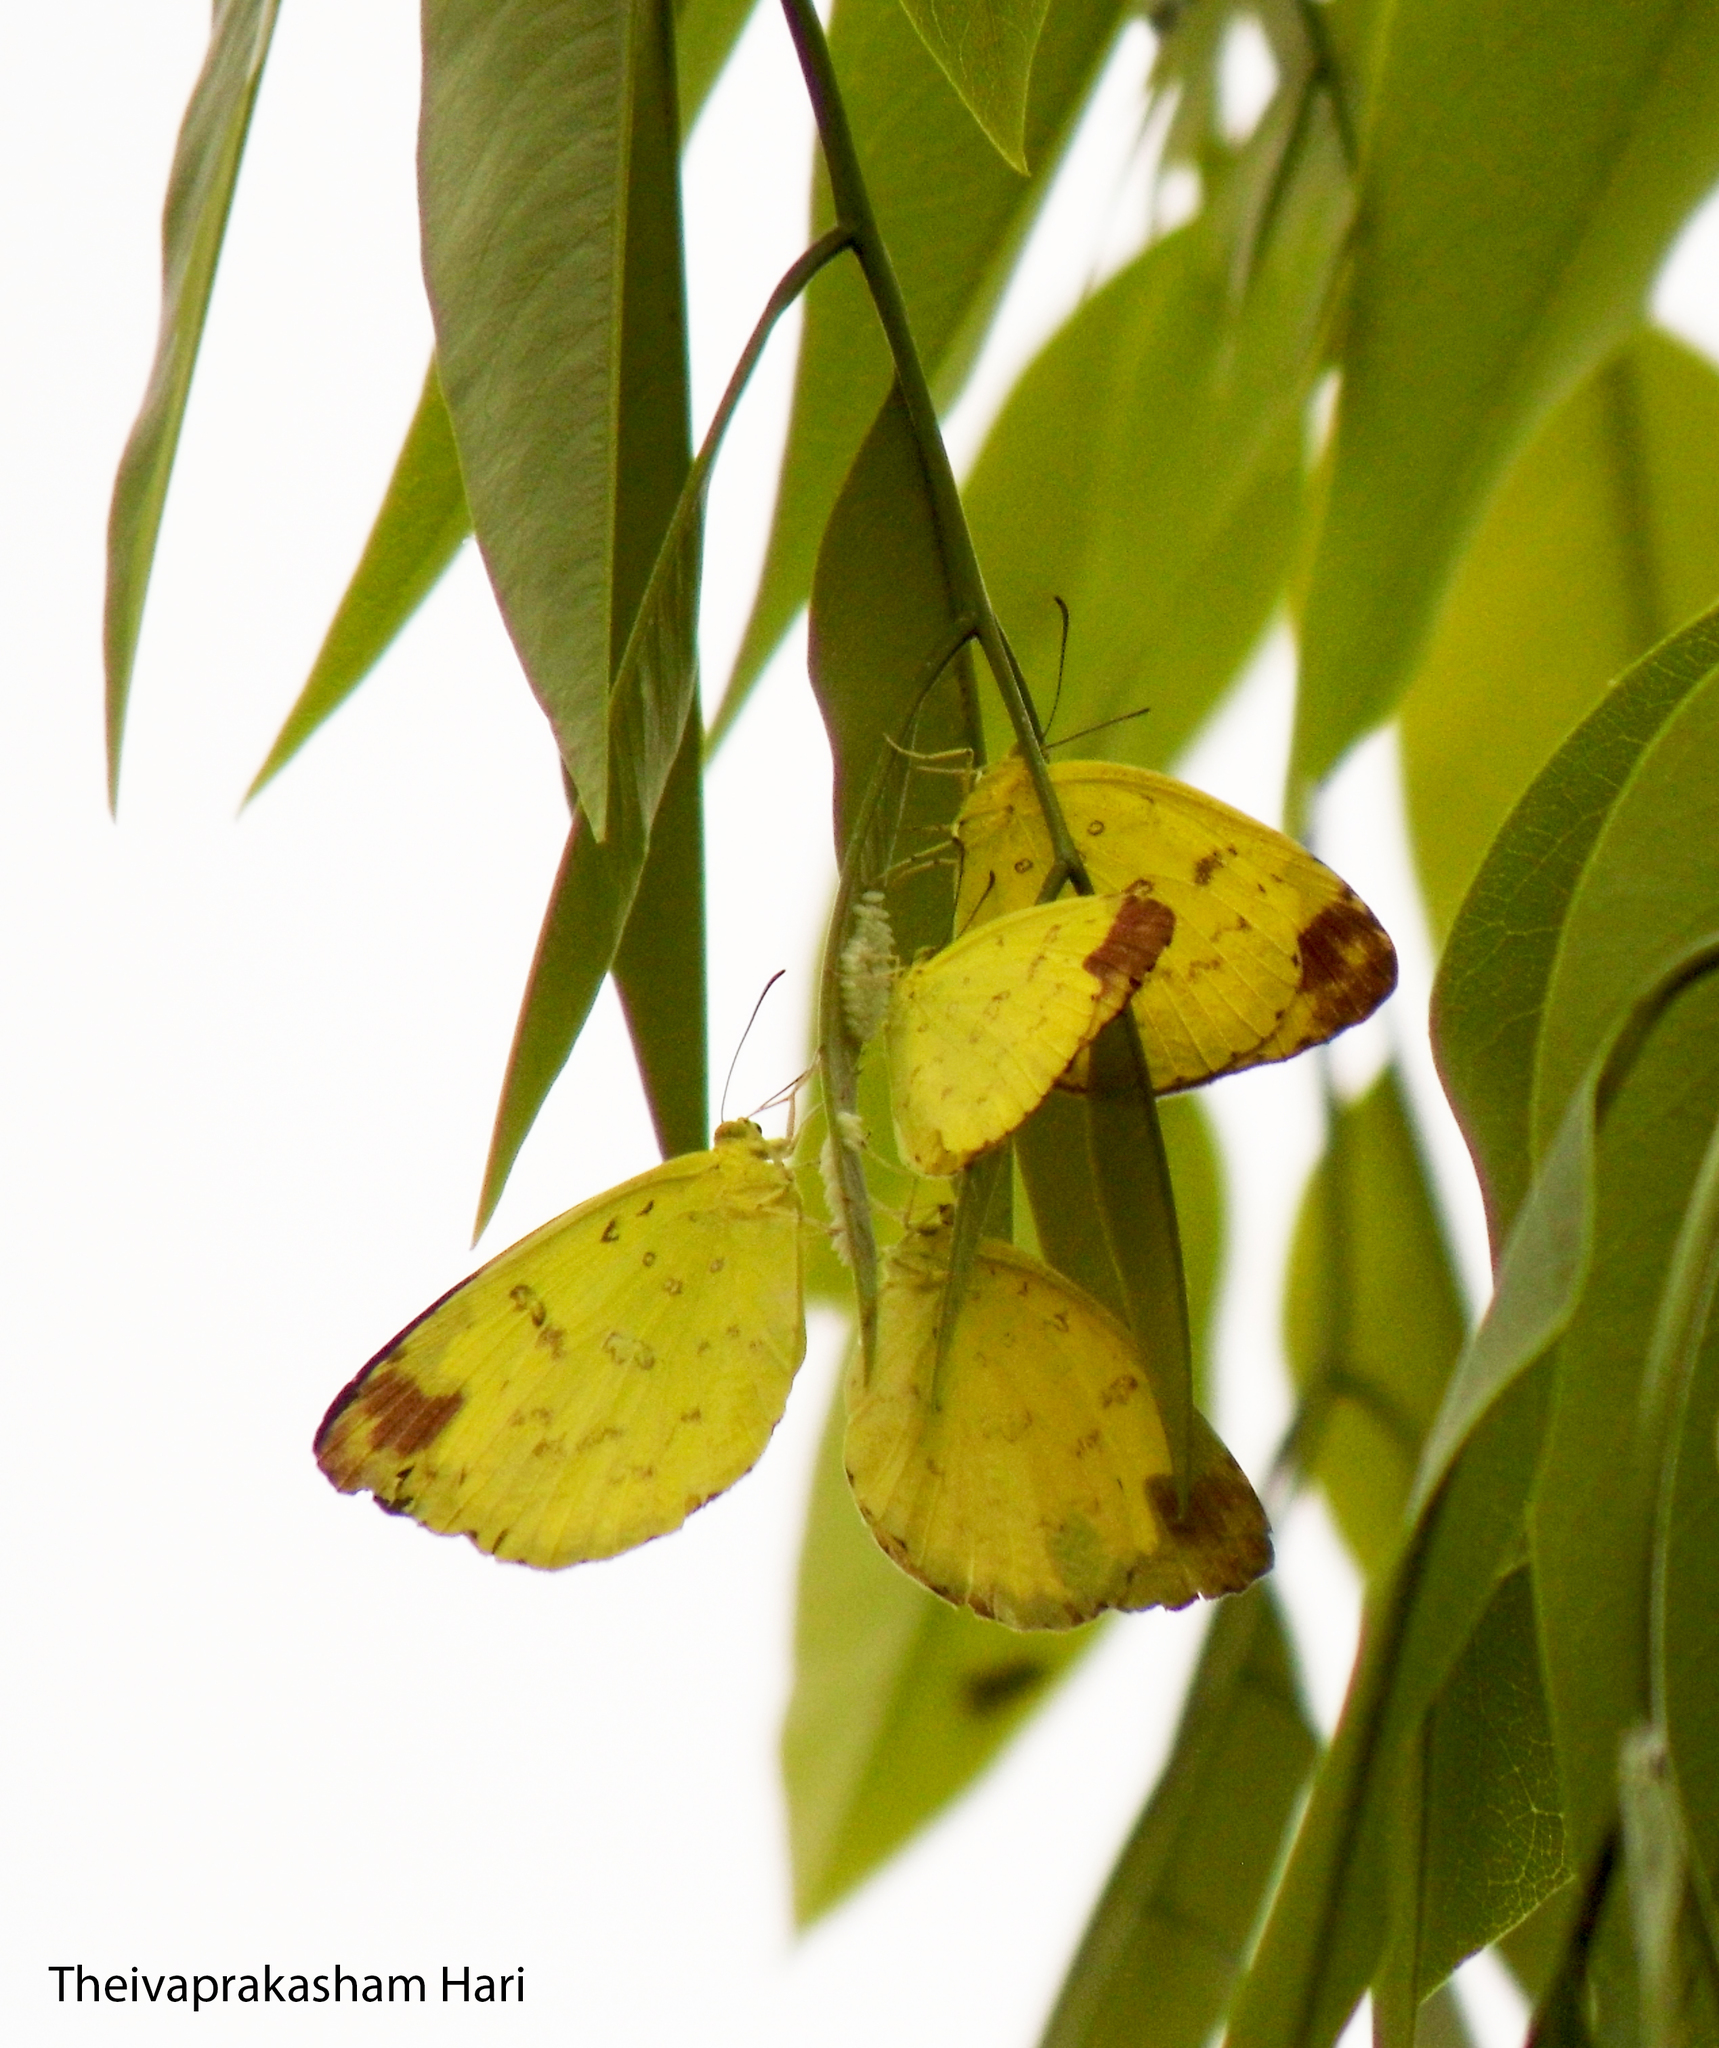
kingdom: Animalia
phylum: Arthropoda
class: Insecta
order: Lepidoptera
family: Pieridae
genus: Eurema
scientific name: Eurema blanda
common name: Three-spot grass yellow
